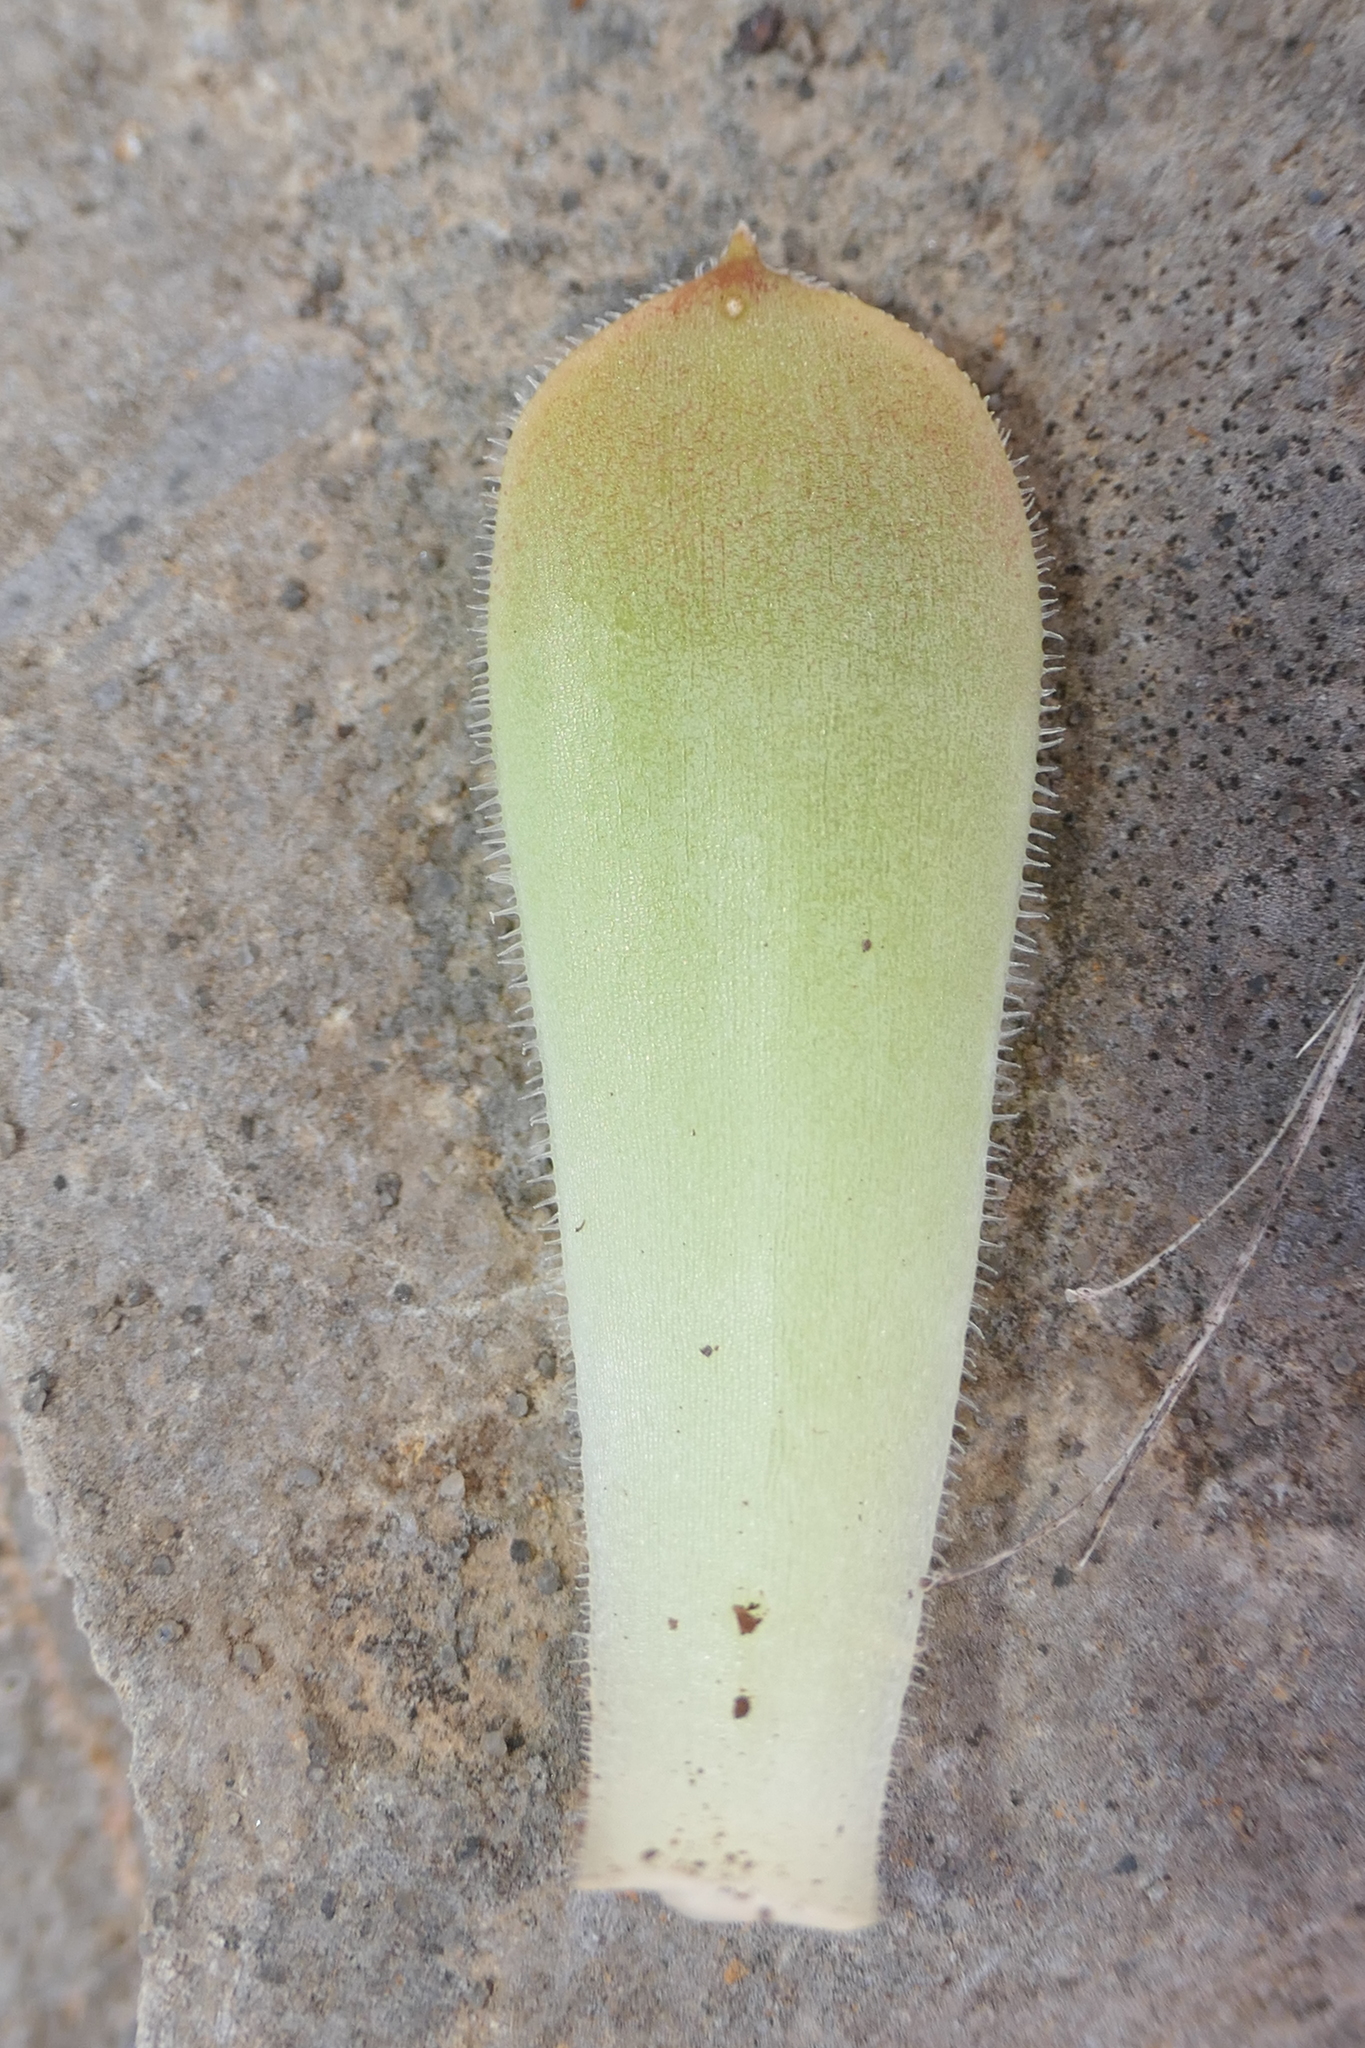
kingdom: Plantae
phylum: Tracheophyta
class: Magnoliopsida
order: Saxifragales
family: Crassulaceae
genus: Sempervivum
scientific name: Sempervivum tectorum
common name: House-leek
